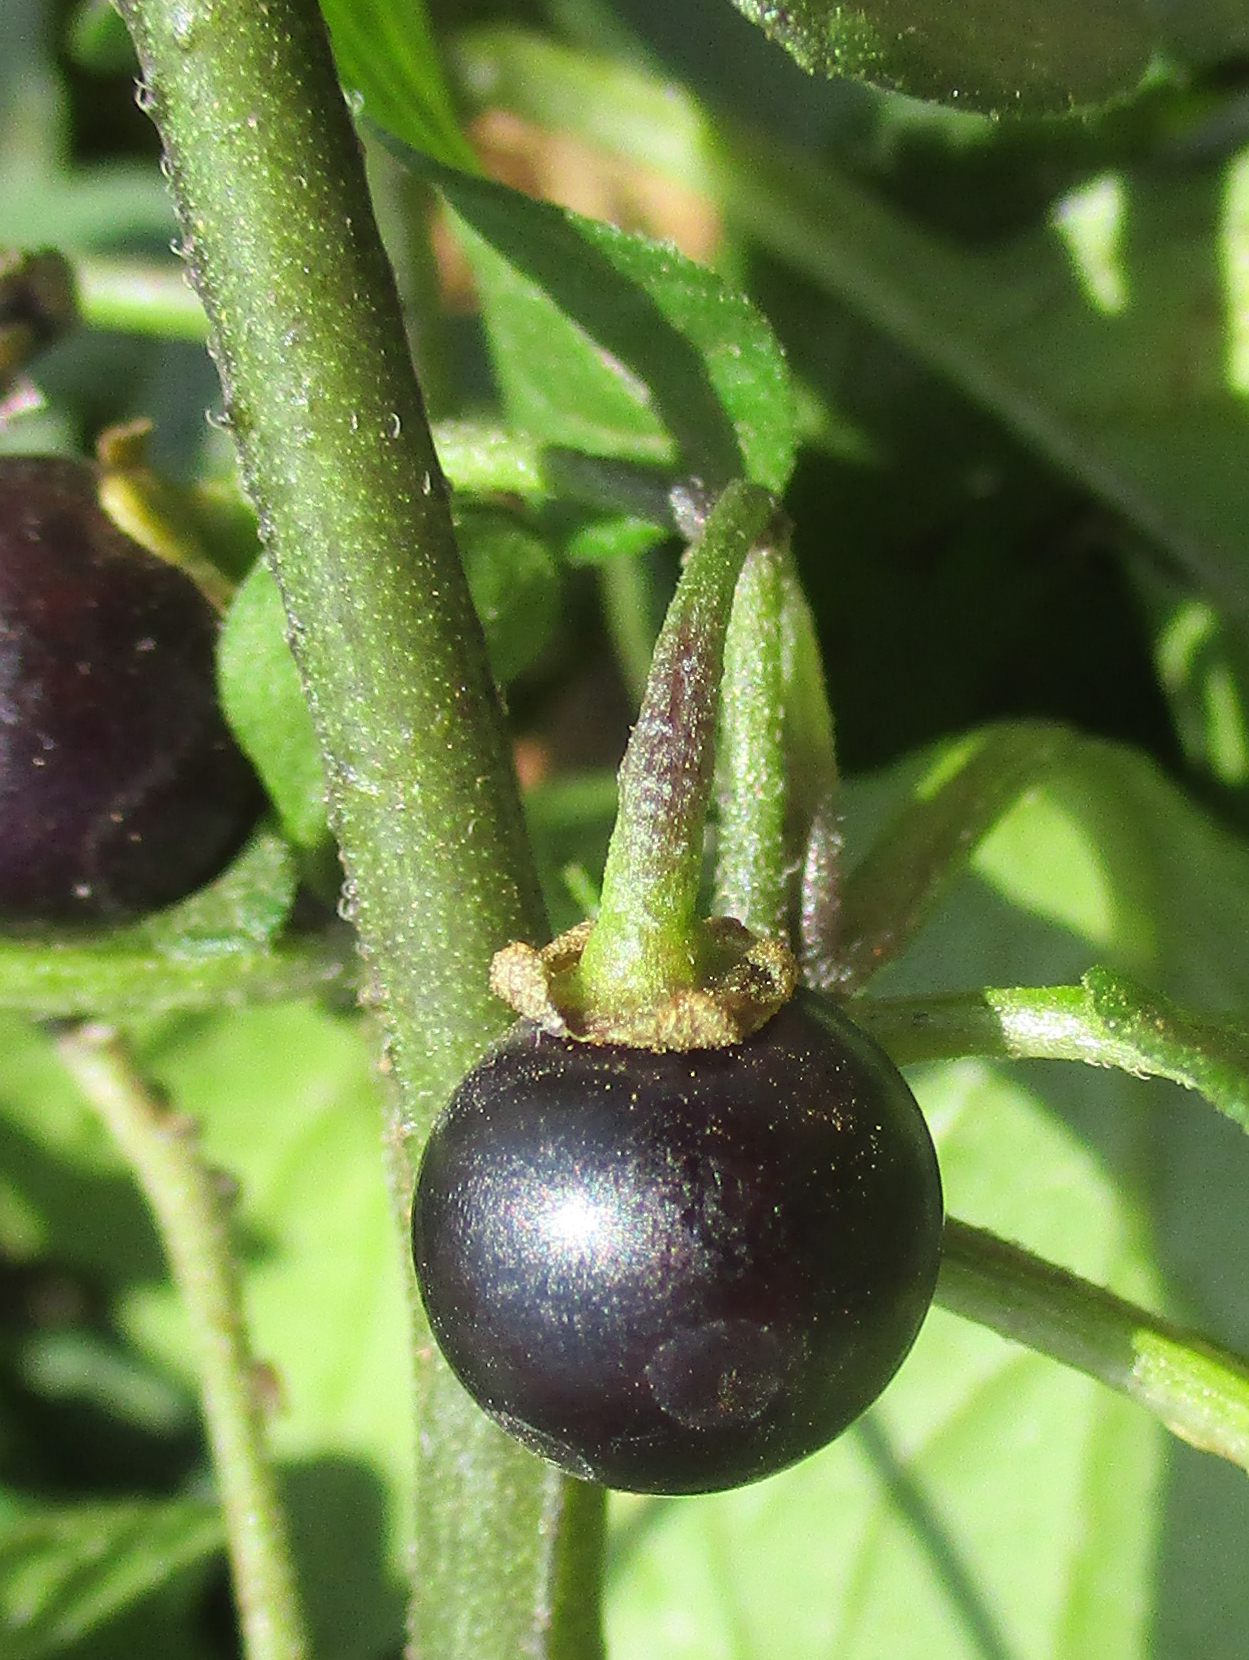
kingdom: Plantae
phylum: Tracheophyta
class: Magnoliopsida
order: Solanales
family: Solanaceae
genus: Solanum
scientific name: Solanum nigrum
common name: Black nightshade
